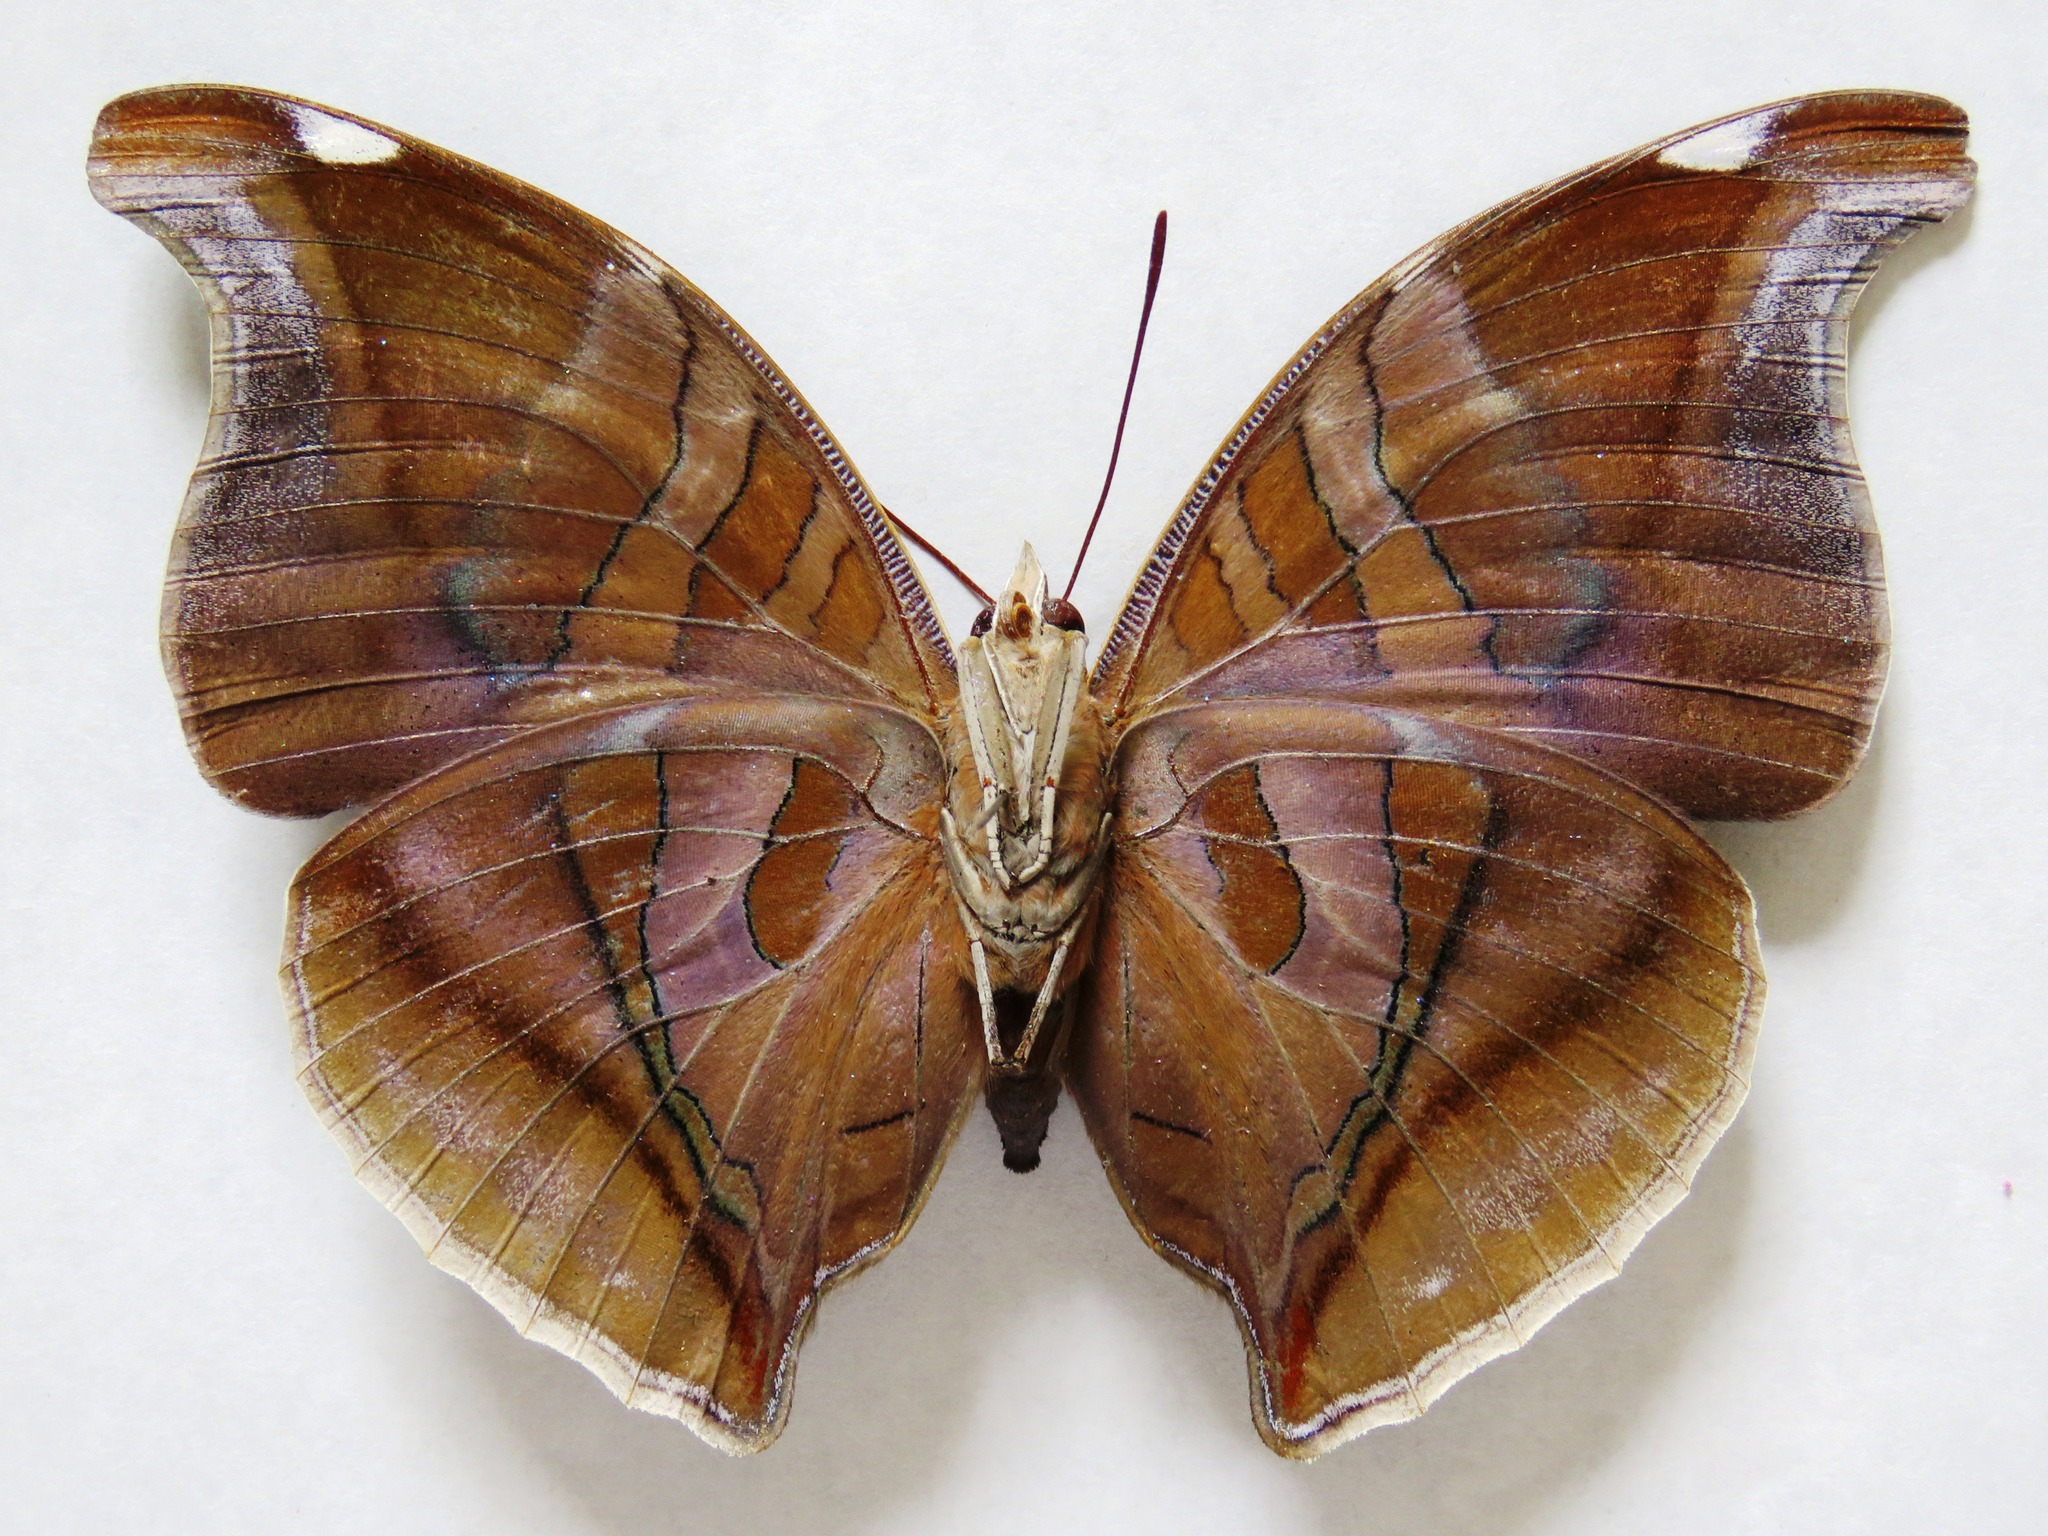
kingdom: Animalia
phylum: Arthropoda
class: Insecta
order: Lepidoptera
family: Nymphalidae
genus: Historis
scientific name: Historis odius
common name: Orion cecropian
